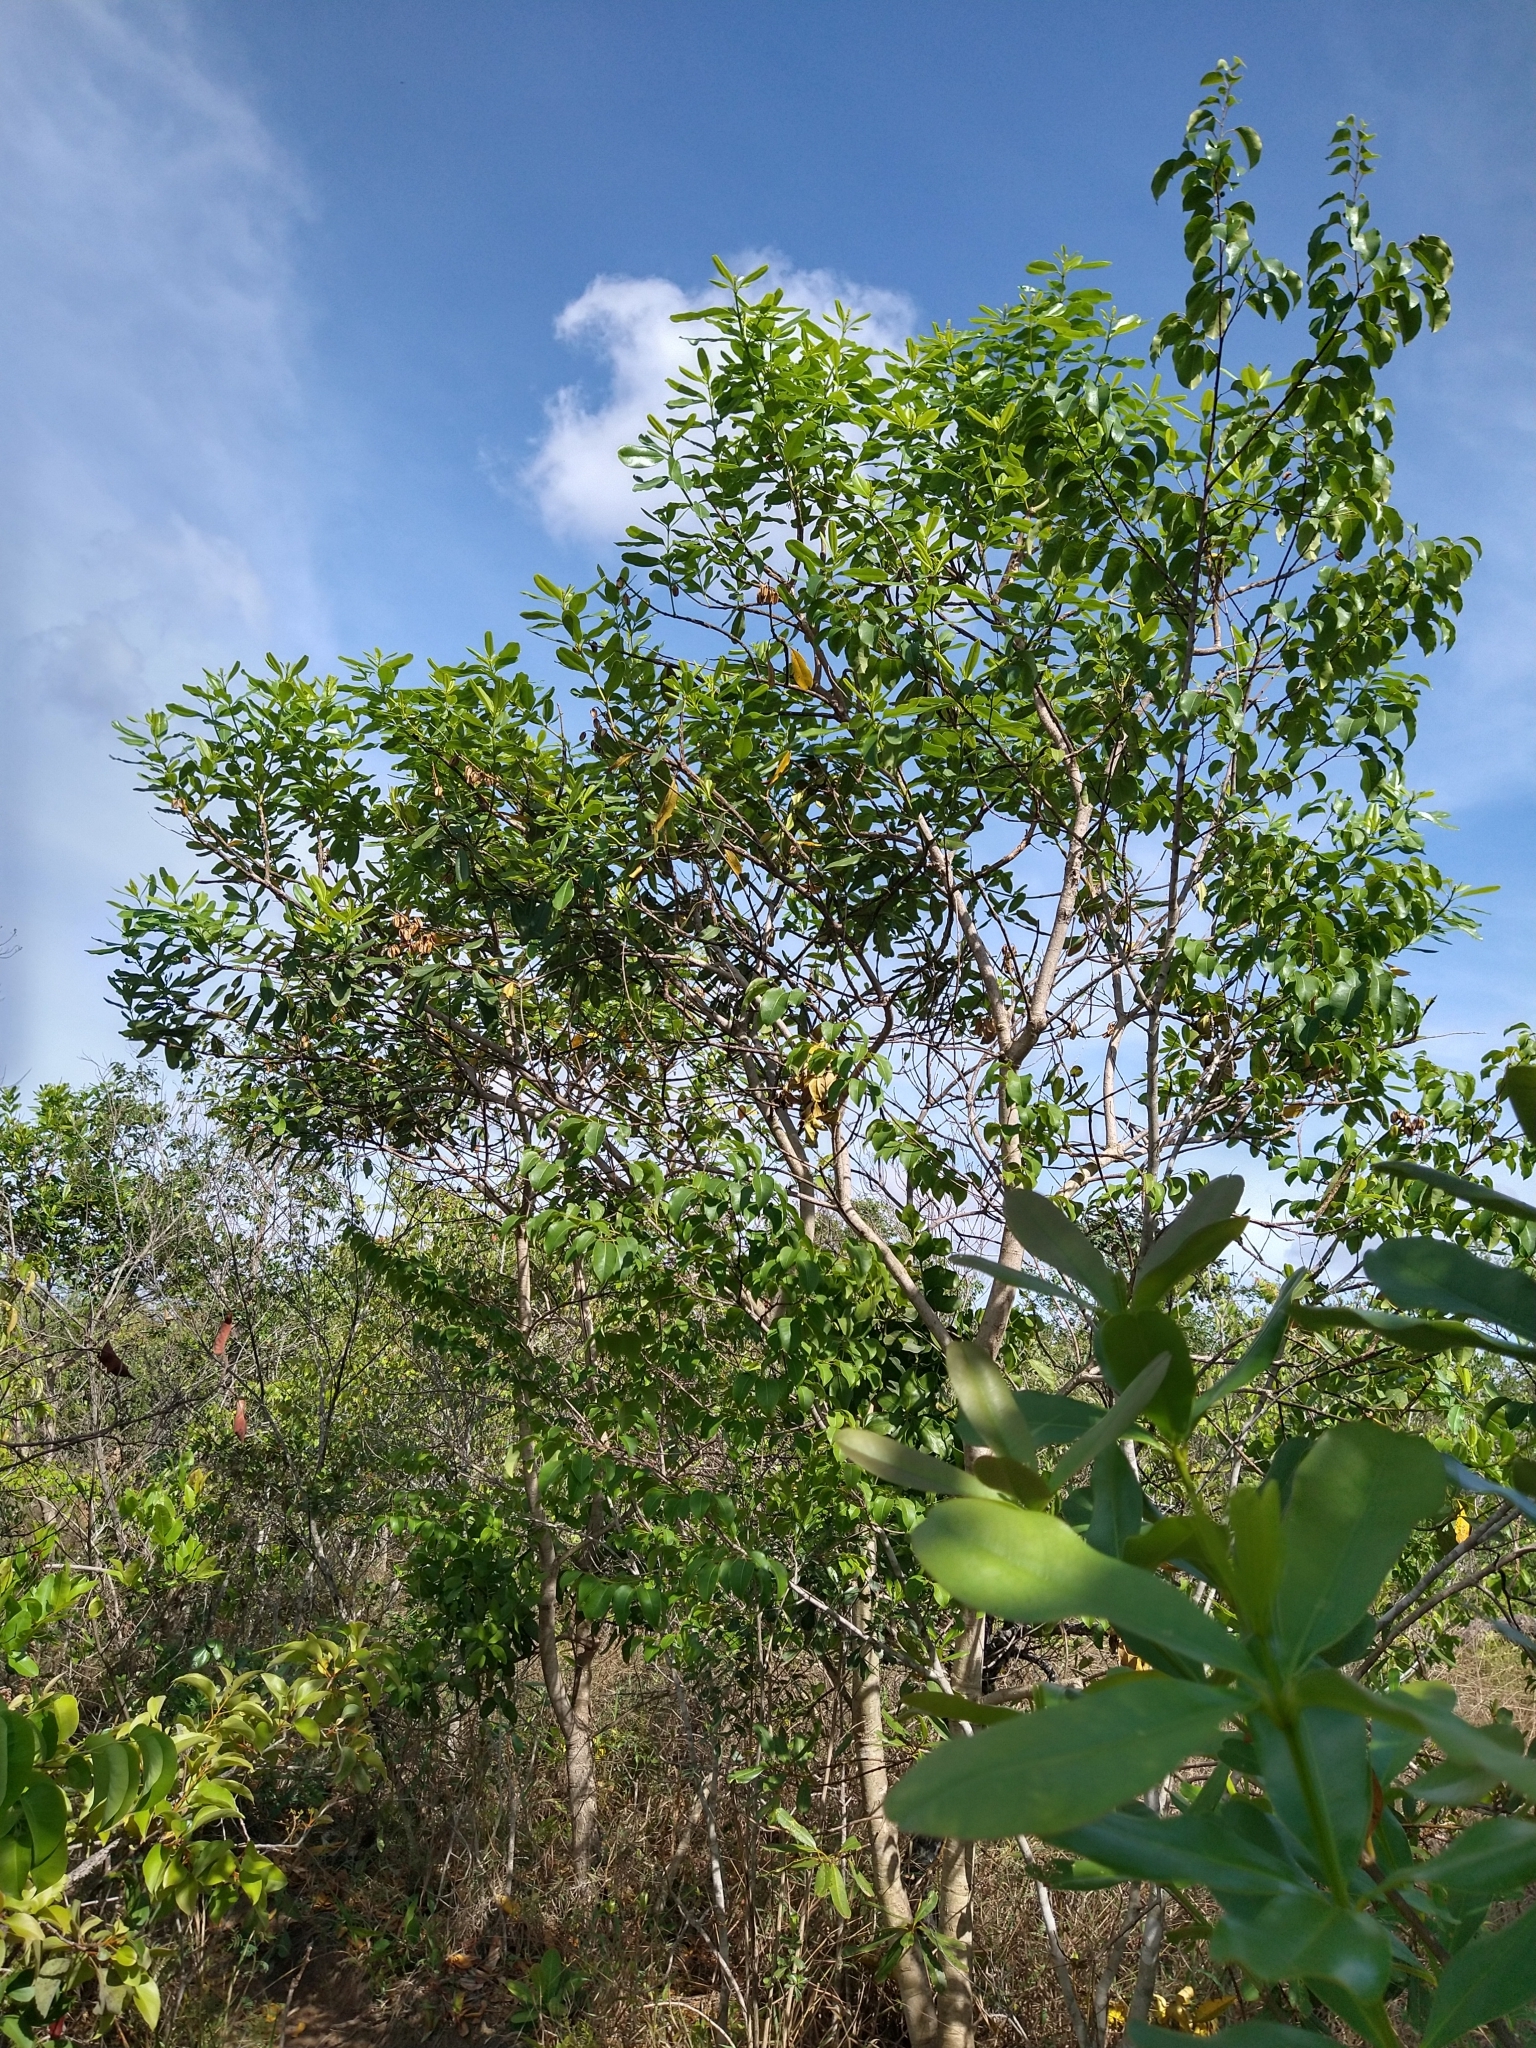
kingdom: Plantae
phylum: Tracheophyta
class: Magnoliopsida
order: Myrtales
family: Vochysiaceae
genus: Vochysia
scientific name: Vochysia tucanorum
